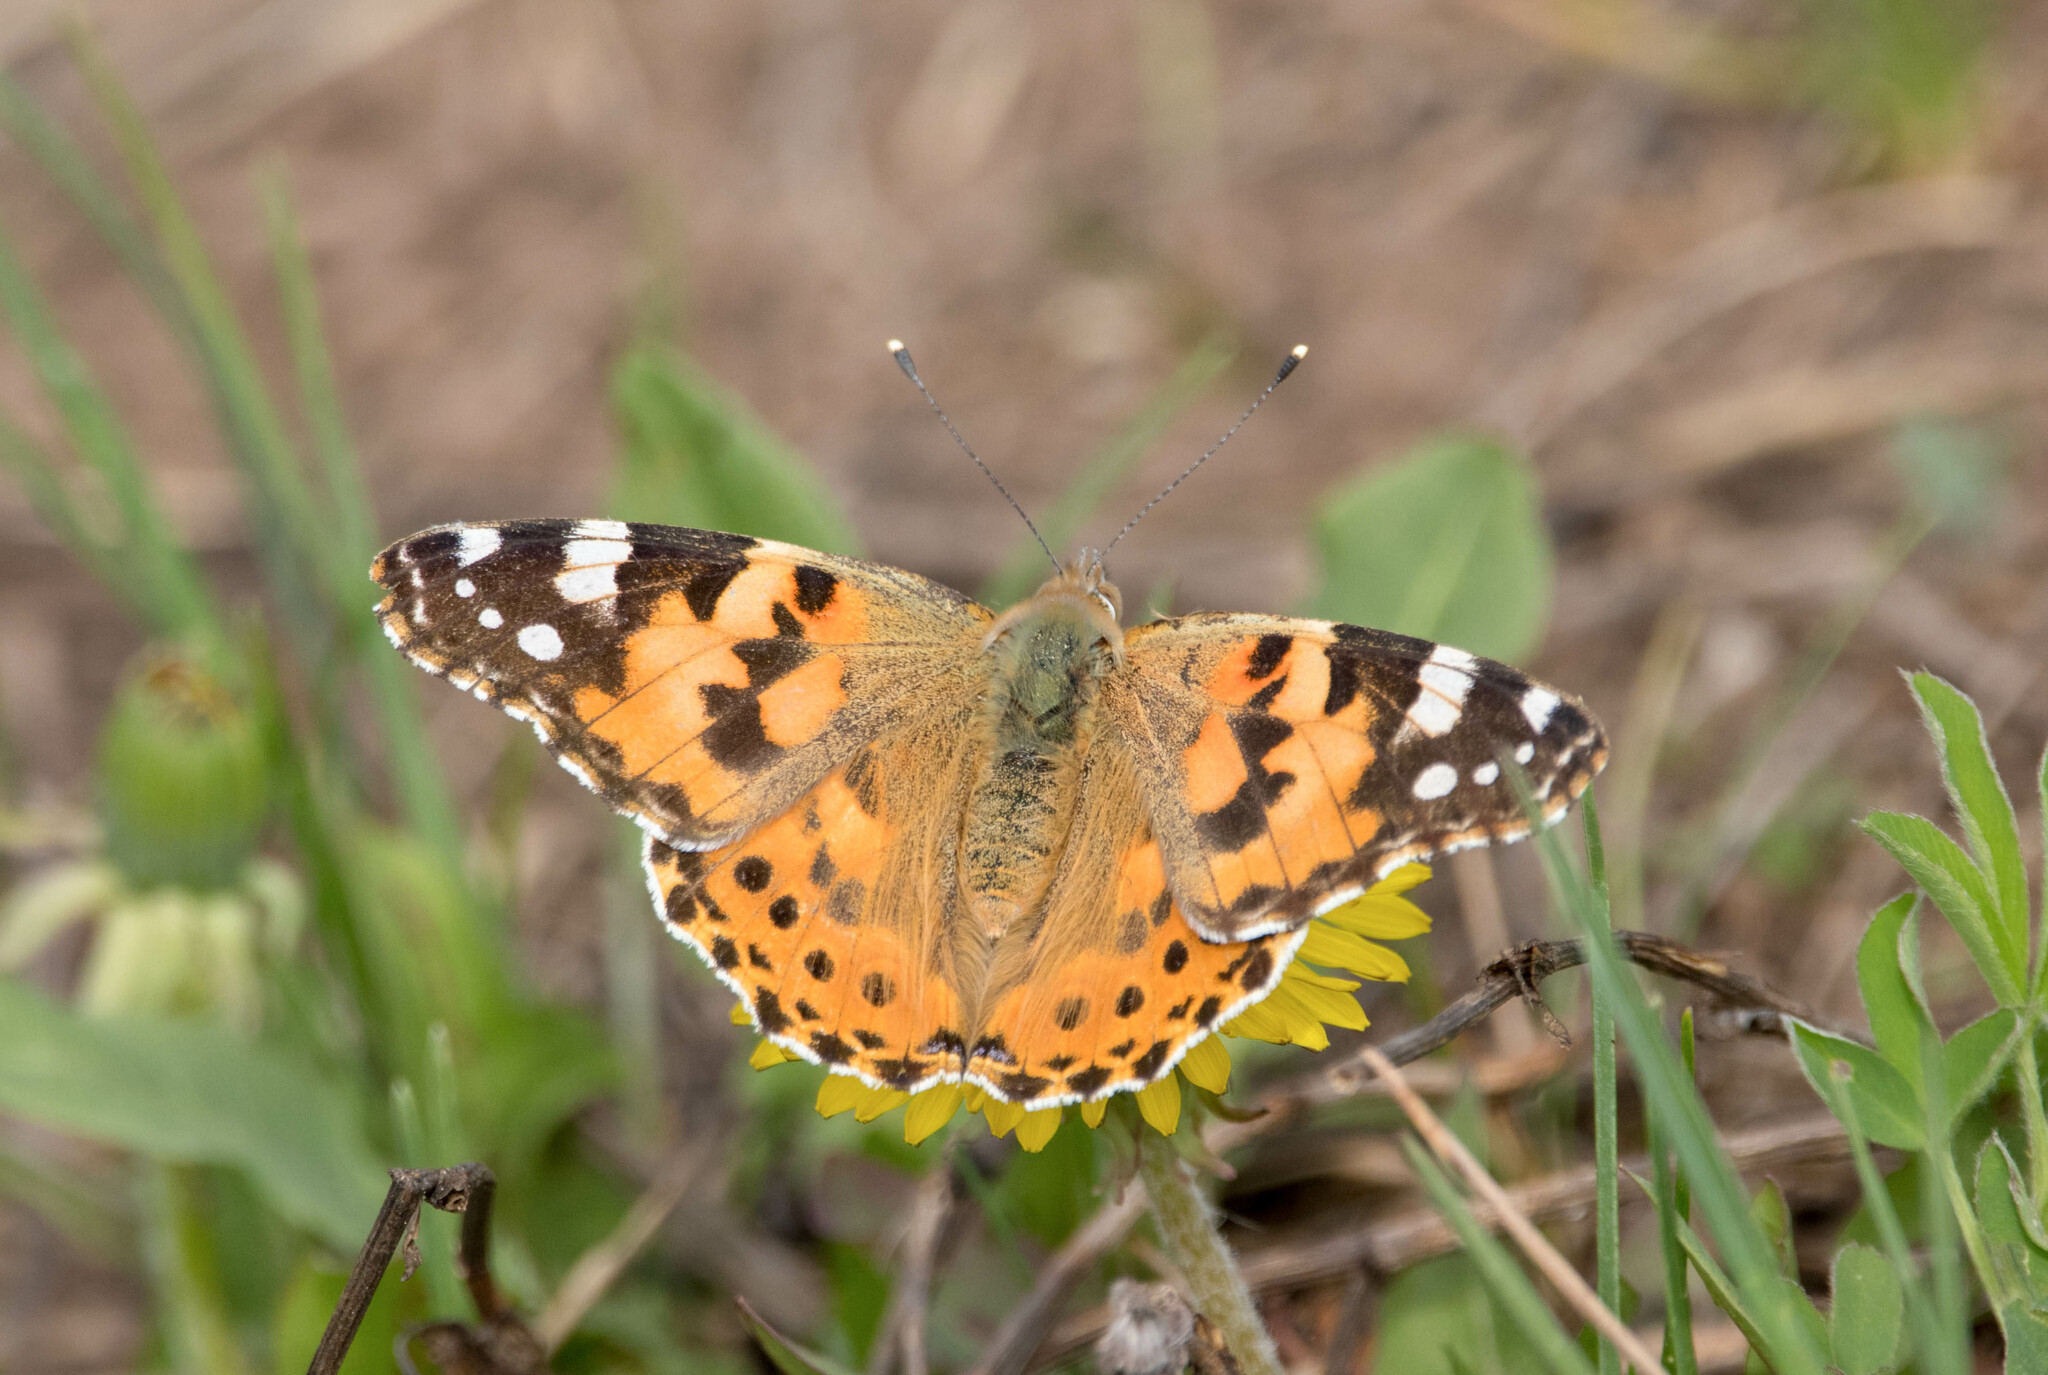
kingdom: Animalia
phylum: Arthropoda
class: Insecta
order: Lepidoptera
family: Nymphalidae
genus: Vanessa
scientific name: Vanessa cardui
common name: Painted lady
